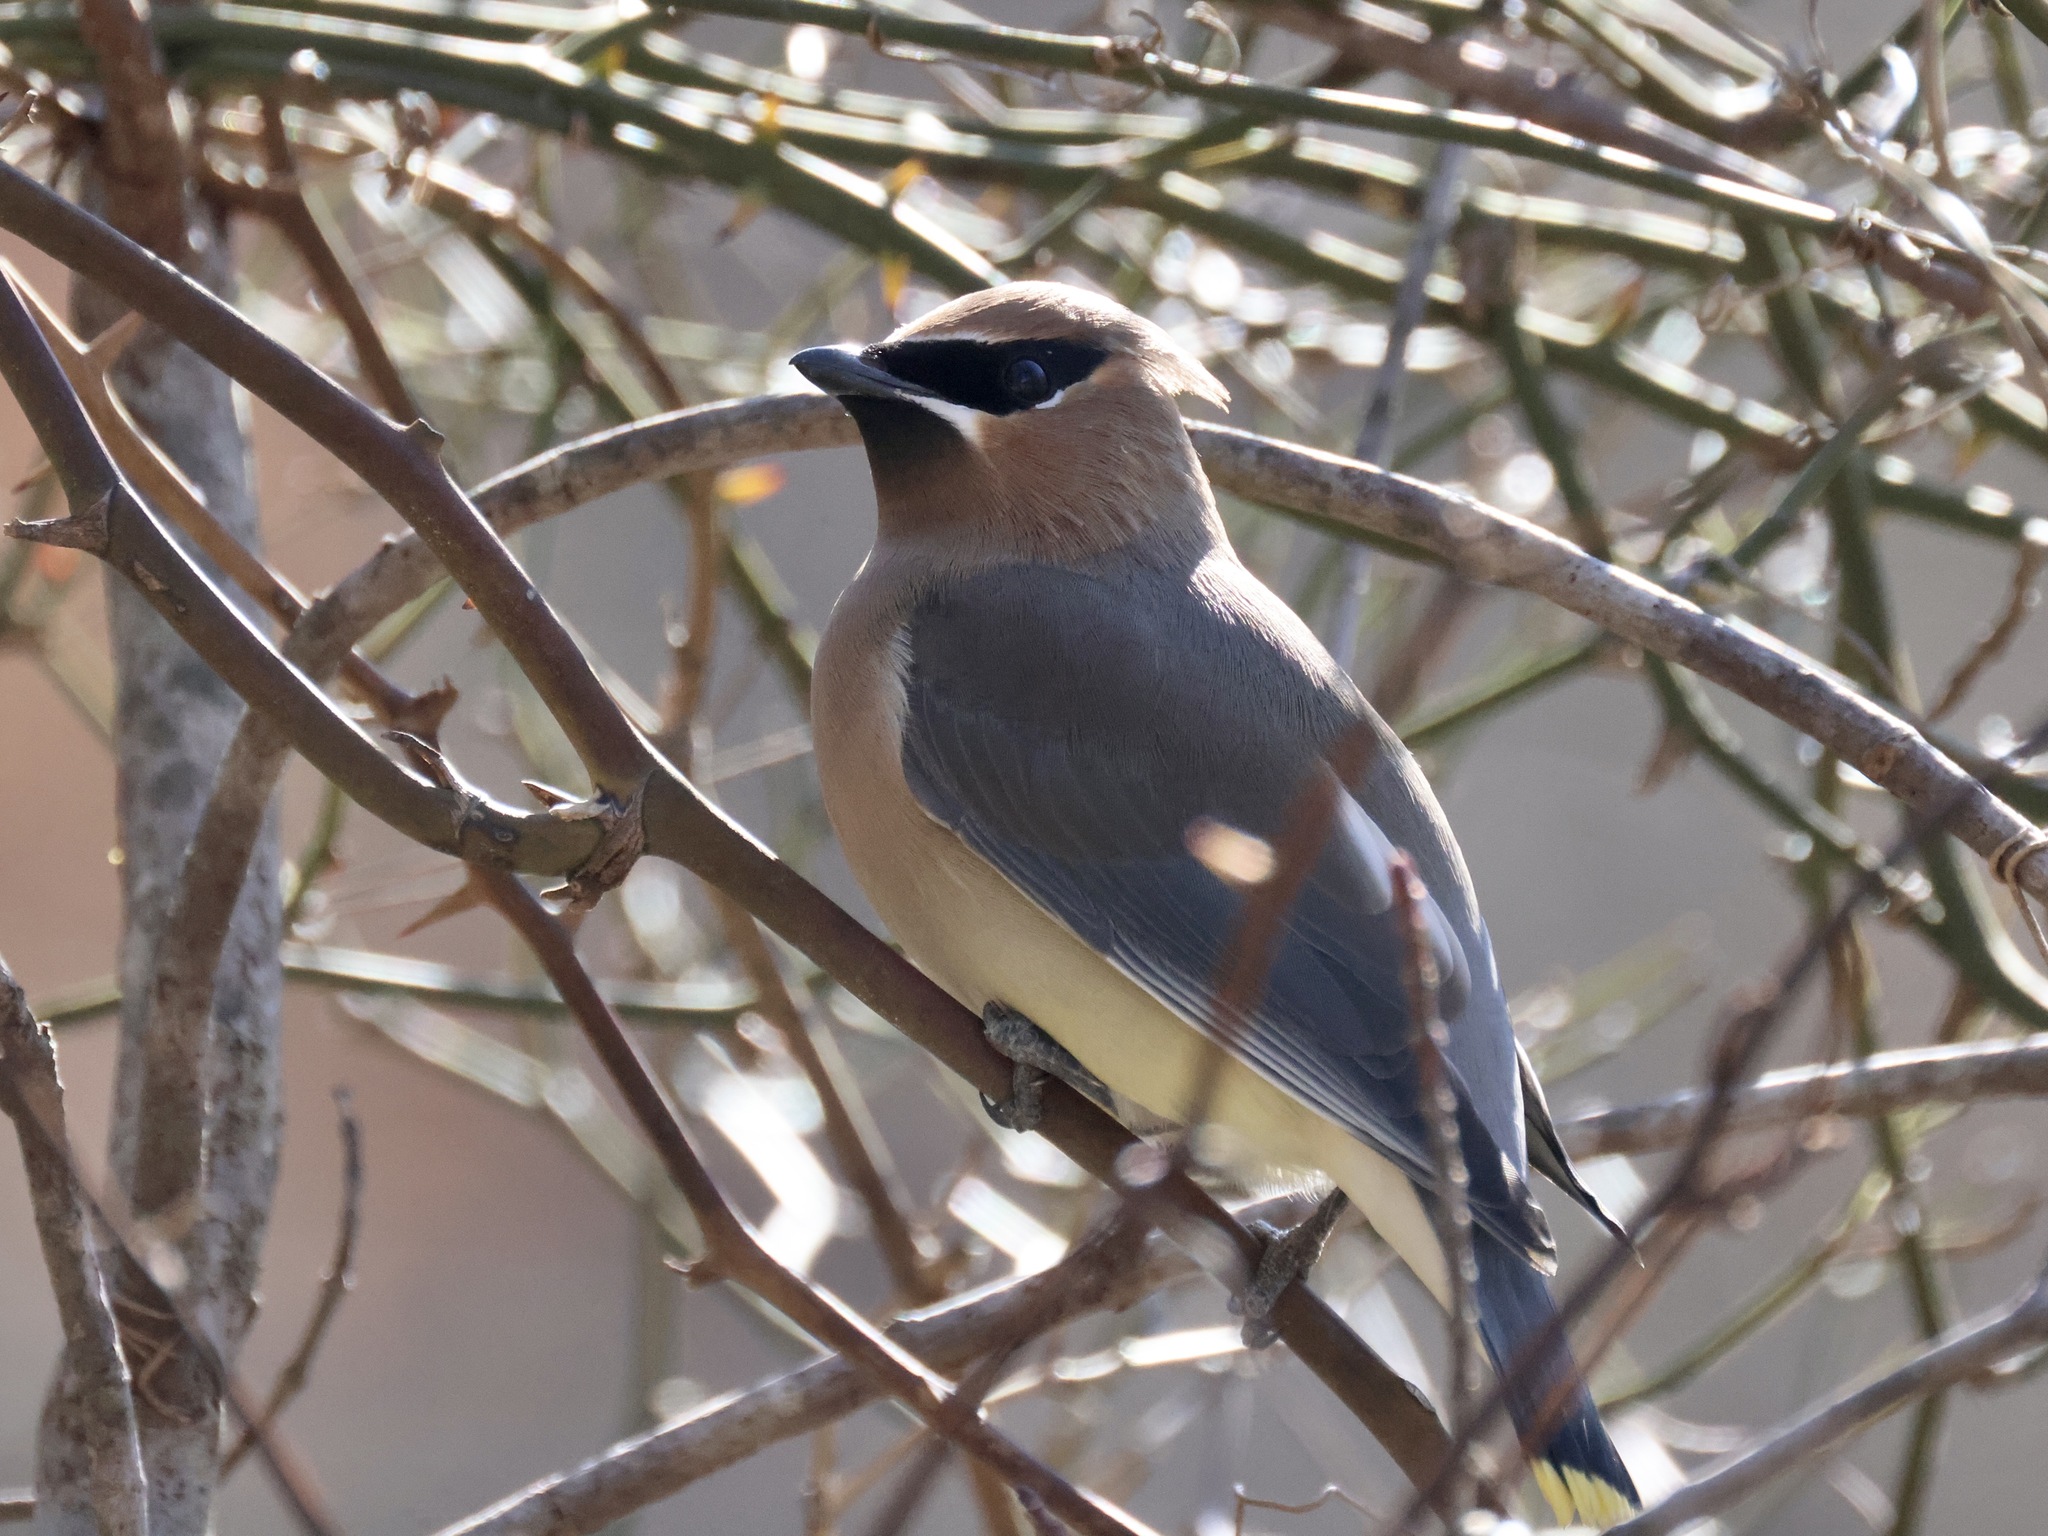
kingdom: Animalia
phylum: Chordata
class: Aves
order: Passeriformes
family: Bombycillidae
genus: Bombycilla
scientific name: Bombycilla cedrorum
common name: Cedar waxwing
